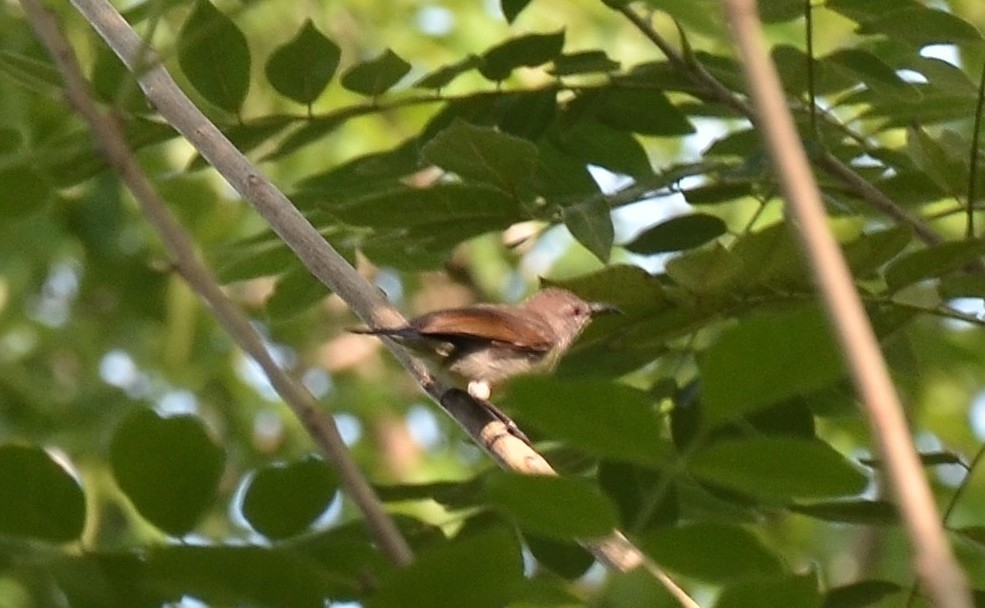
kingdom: Animalia
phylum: Chordata
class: Aves
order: Passeriformes
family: Nectariniidae
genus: Leptocoma
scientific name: Leptocoma zeylonica
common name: Purple-rumped sunbird
